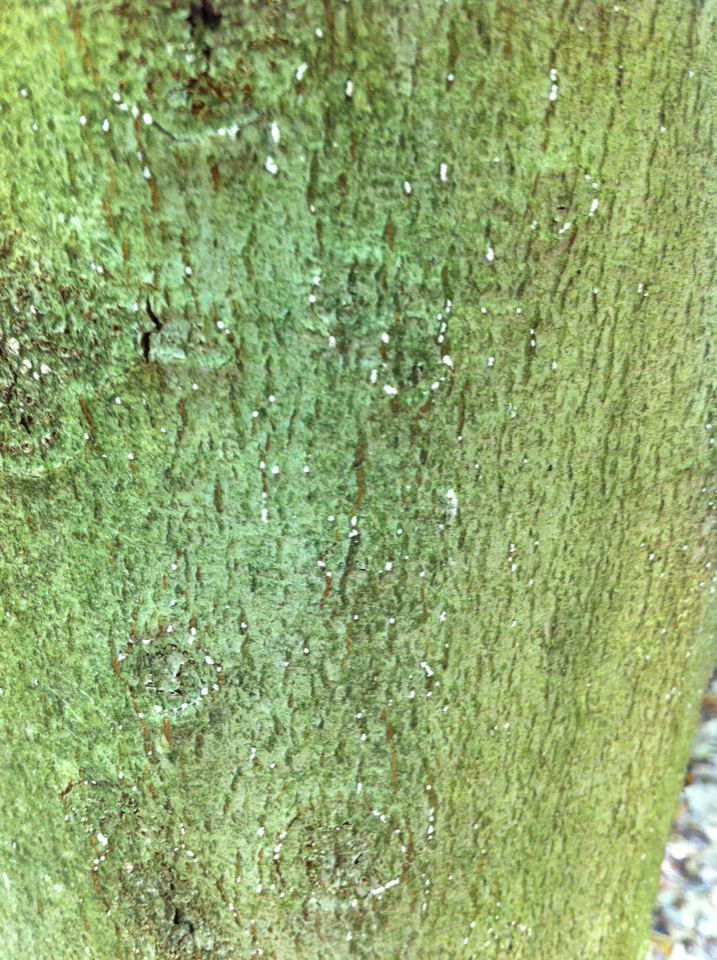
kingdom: Animalia
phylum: Arthropoda
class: Insecta
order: Hemiptera
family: Eriococcidae
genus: Cryptococcus
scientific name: Cryptococcus fagisuga
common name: Beech scale
